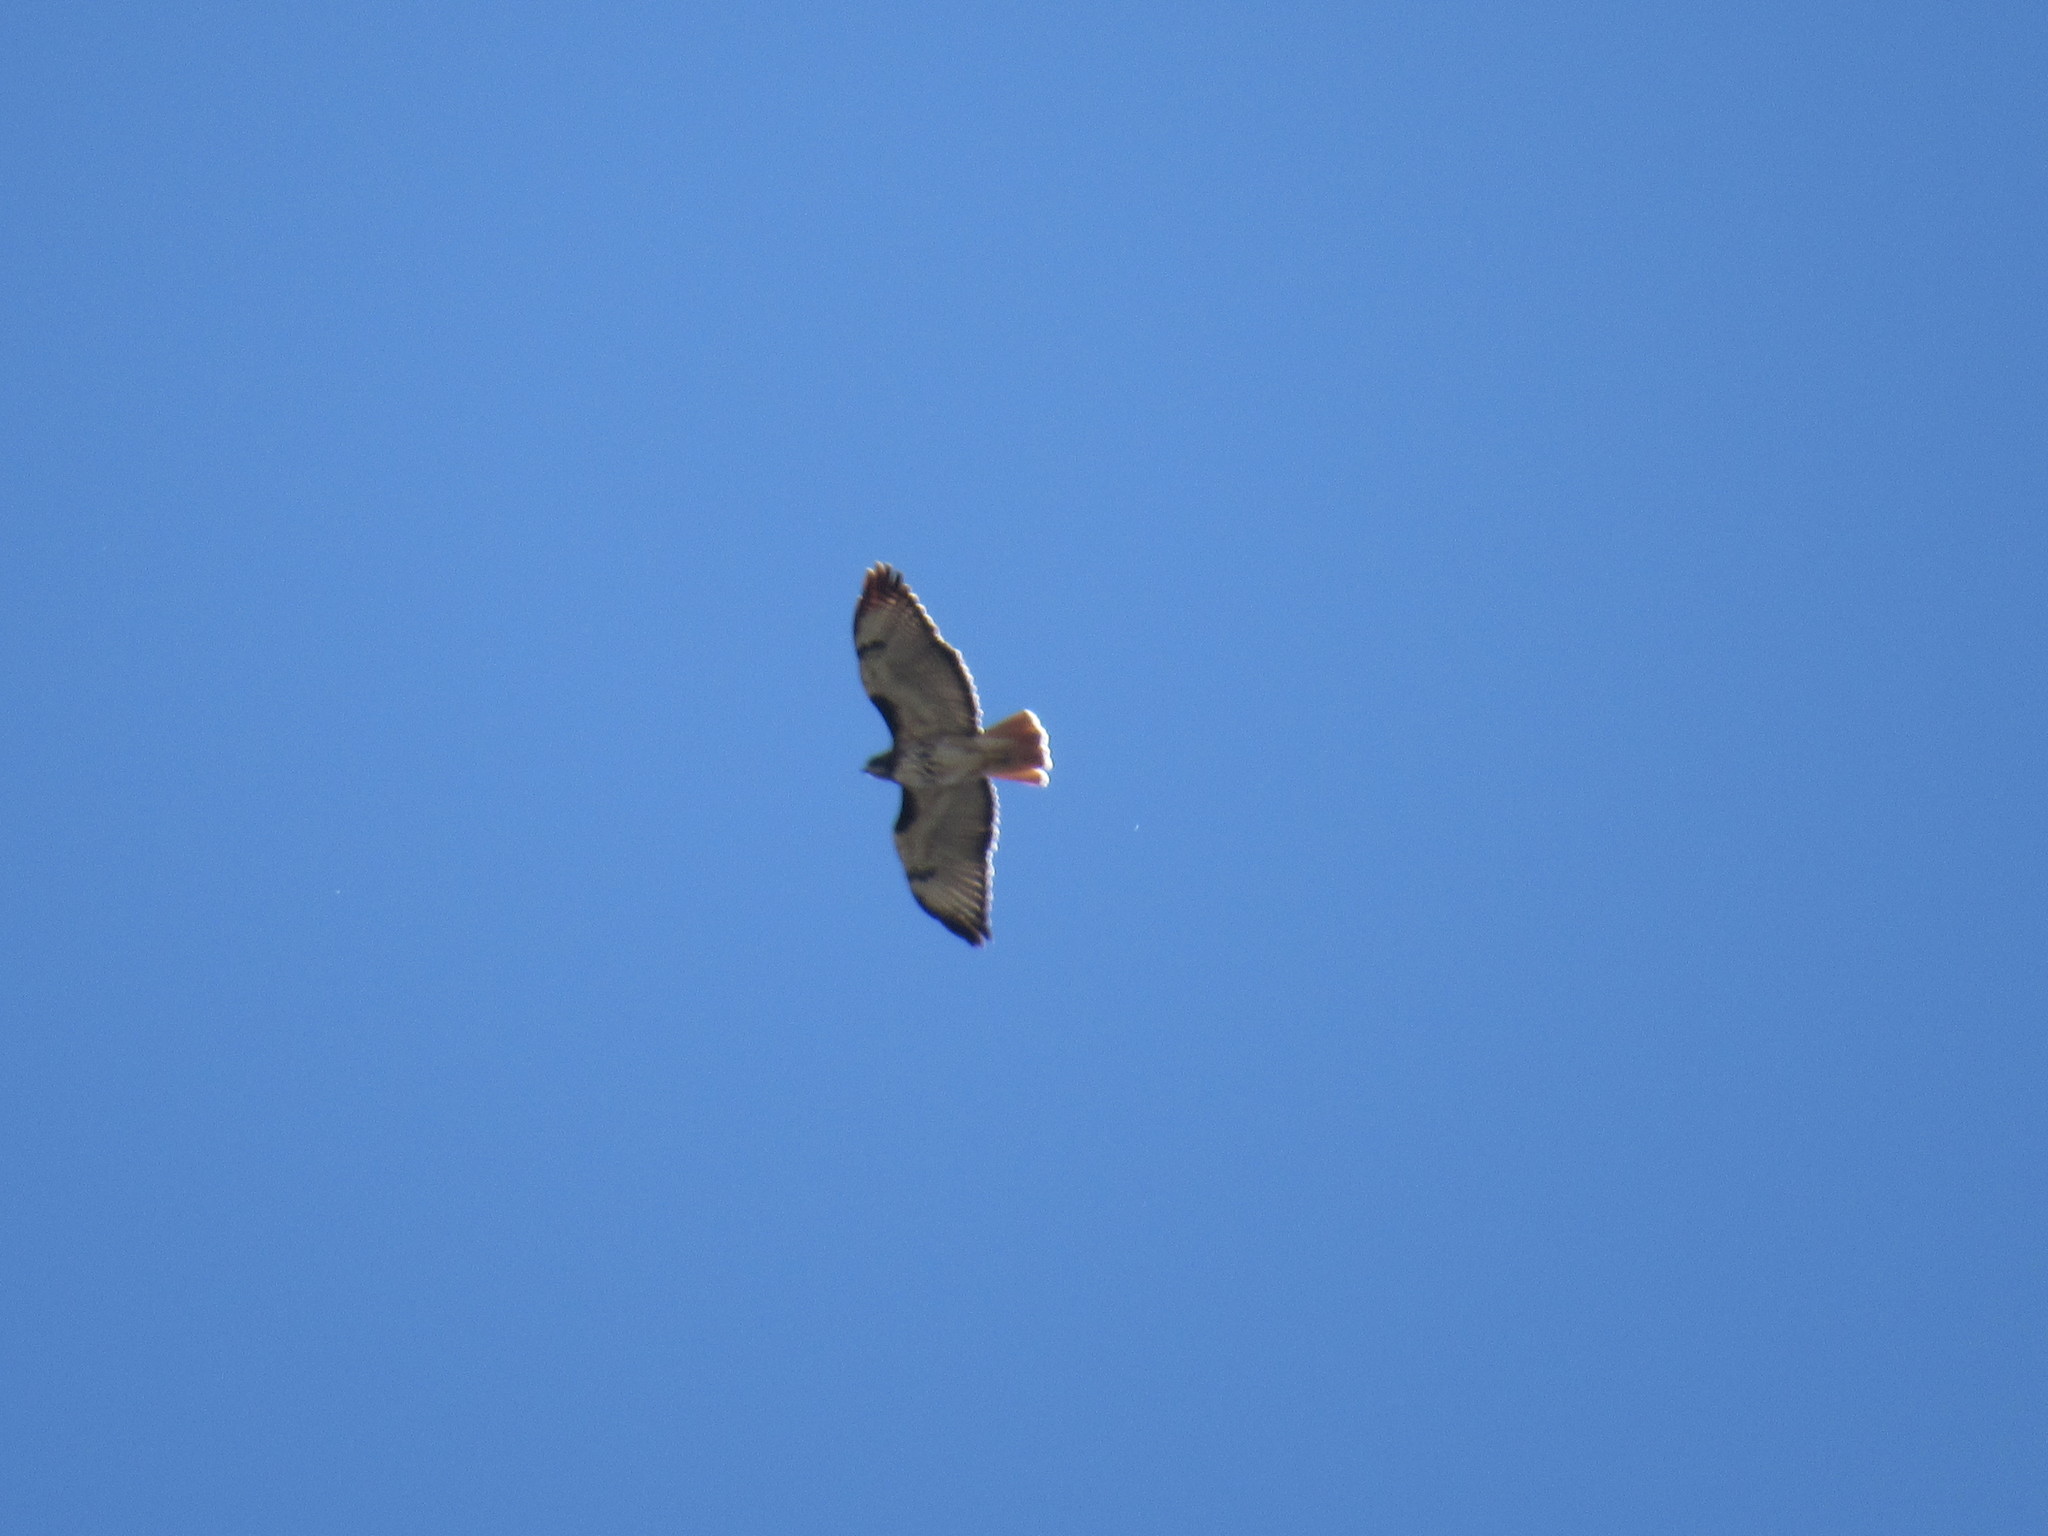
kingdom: Animalia
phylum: Chordata
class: Aves
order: Accipitriformes
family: Accipitridae
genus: Buteo
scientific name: Buteo jamaicensis
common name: Red-tailed hawk
